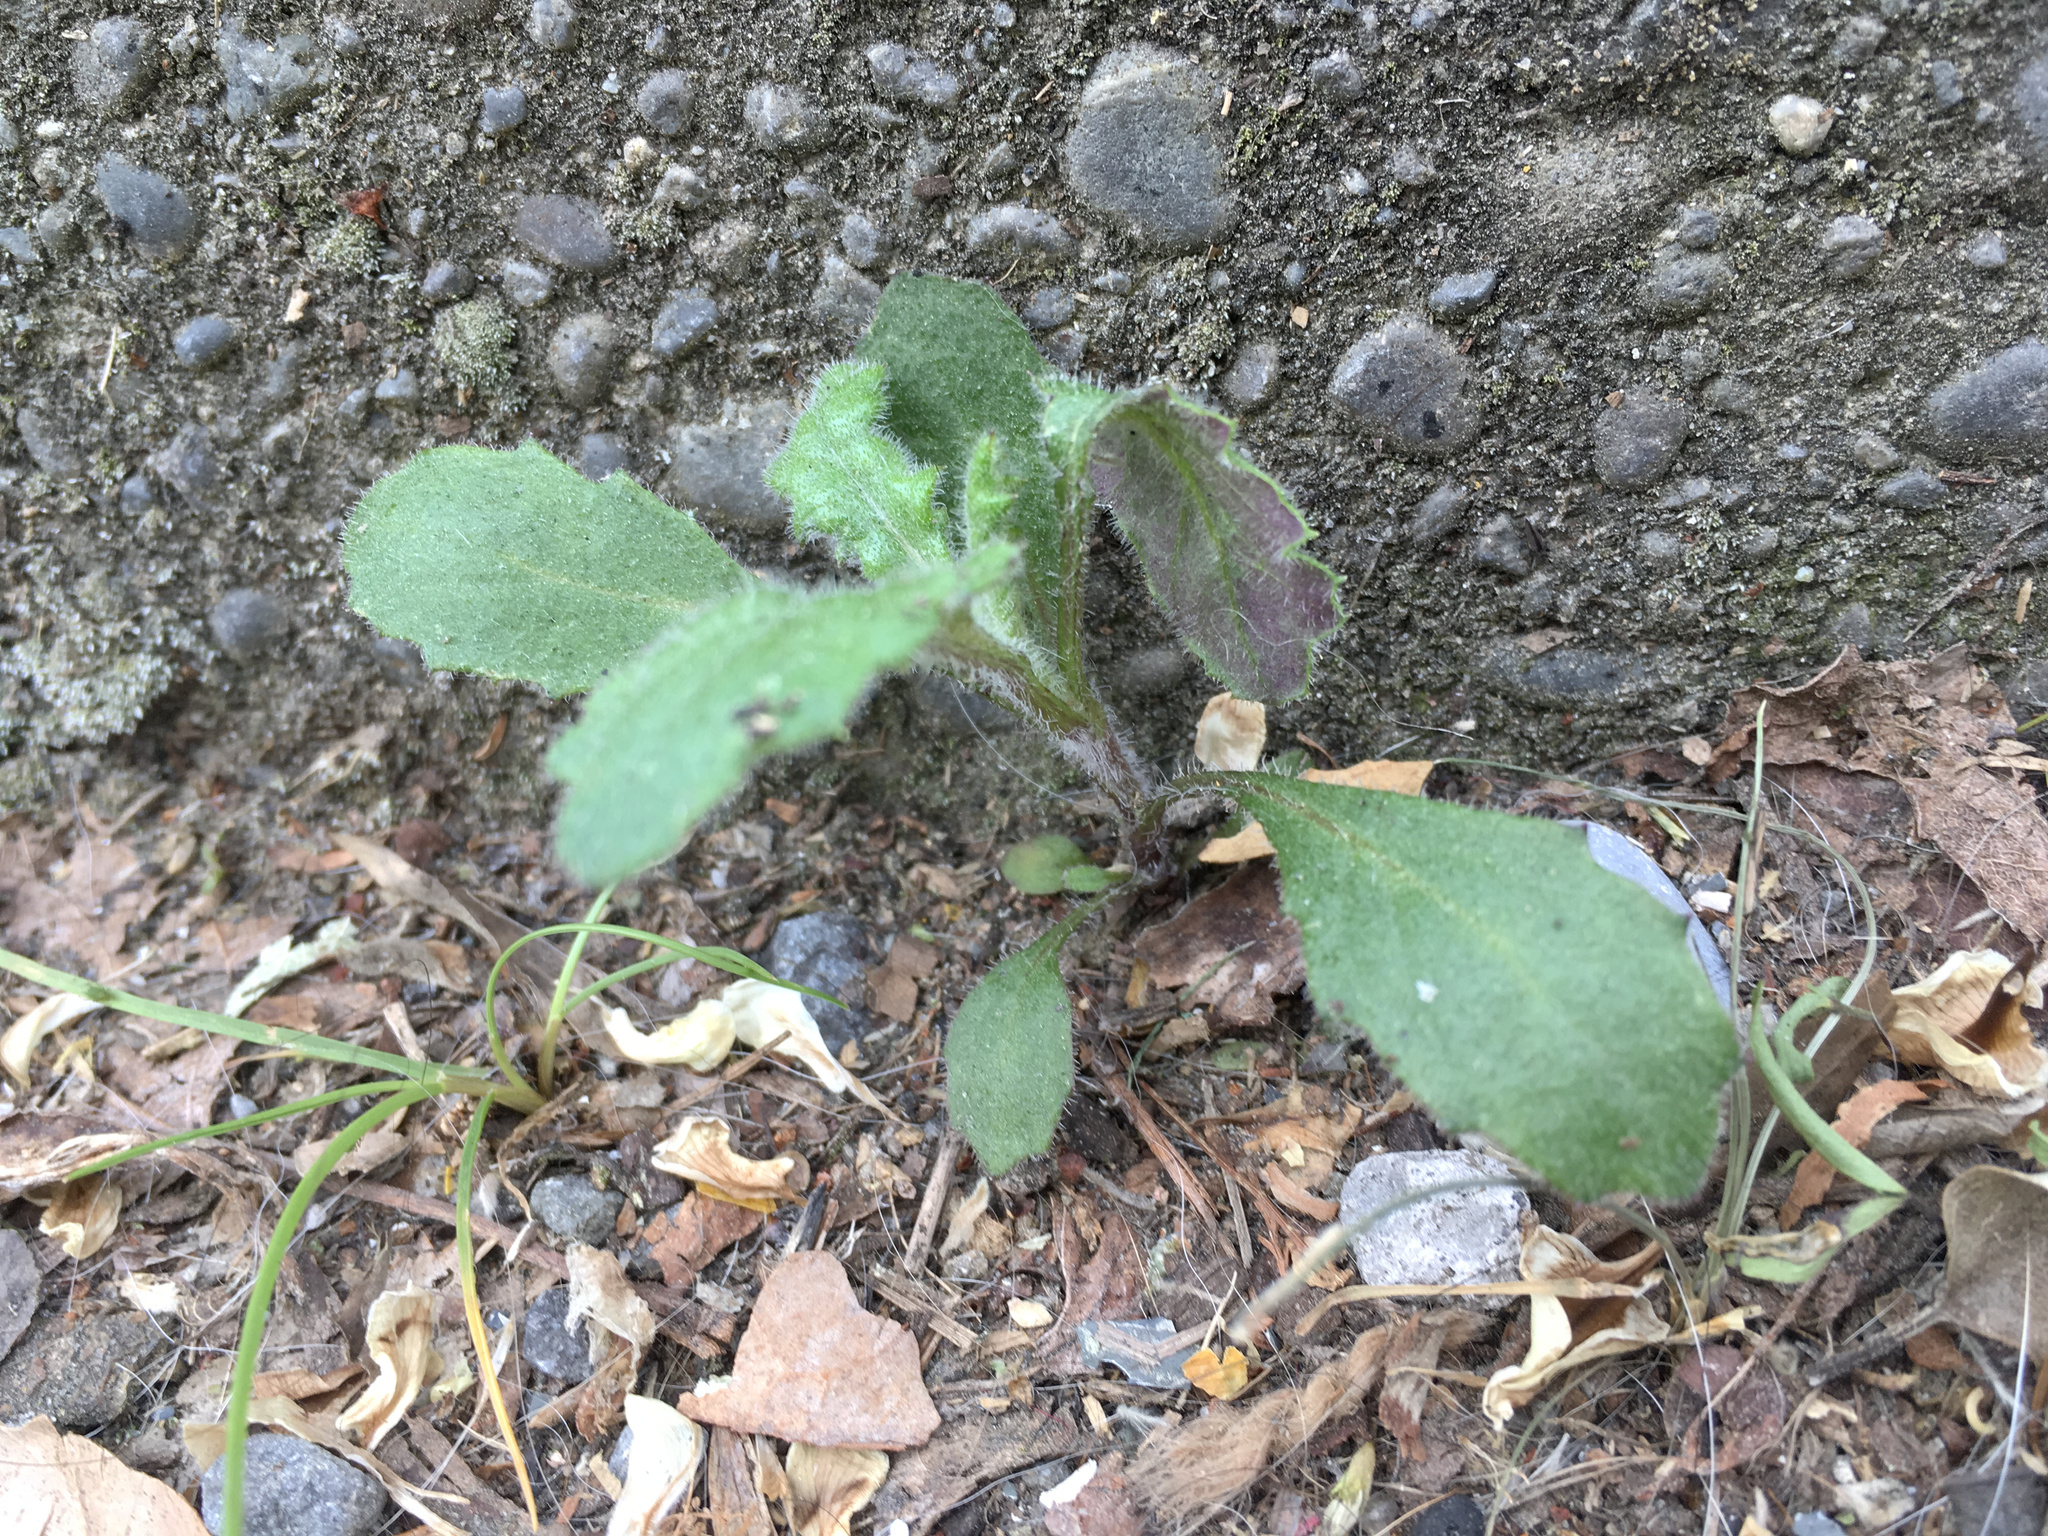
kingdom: Plantae
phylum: Tracheophyta
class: Magnoliopsida
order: Asterales
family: Asteraceae
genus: Senecio
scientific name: Senecio glomeratus
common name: Cutleaf burnweed
